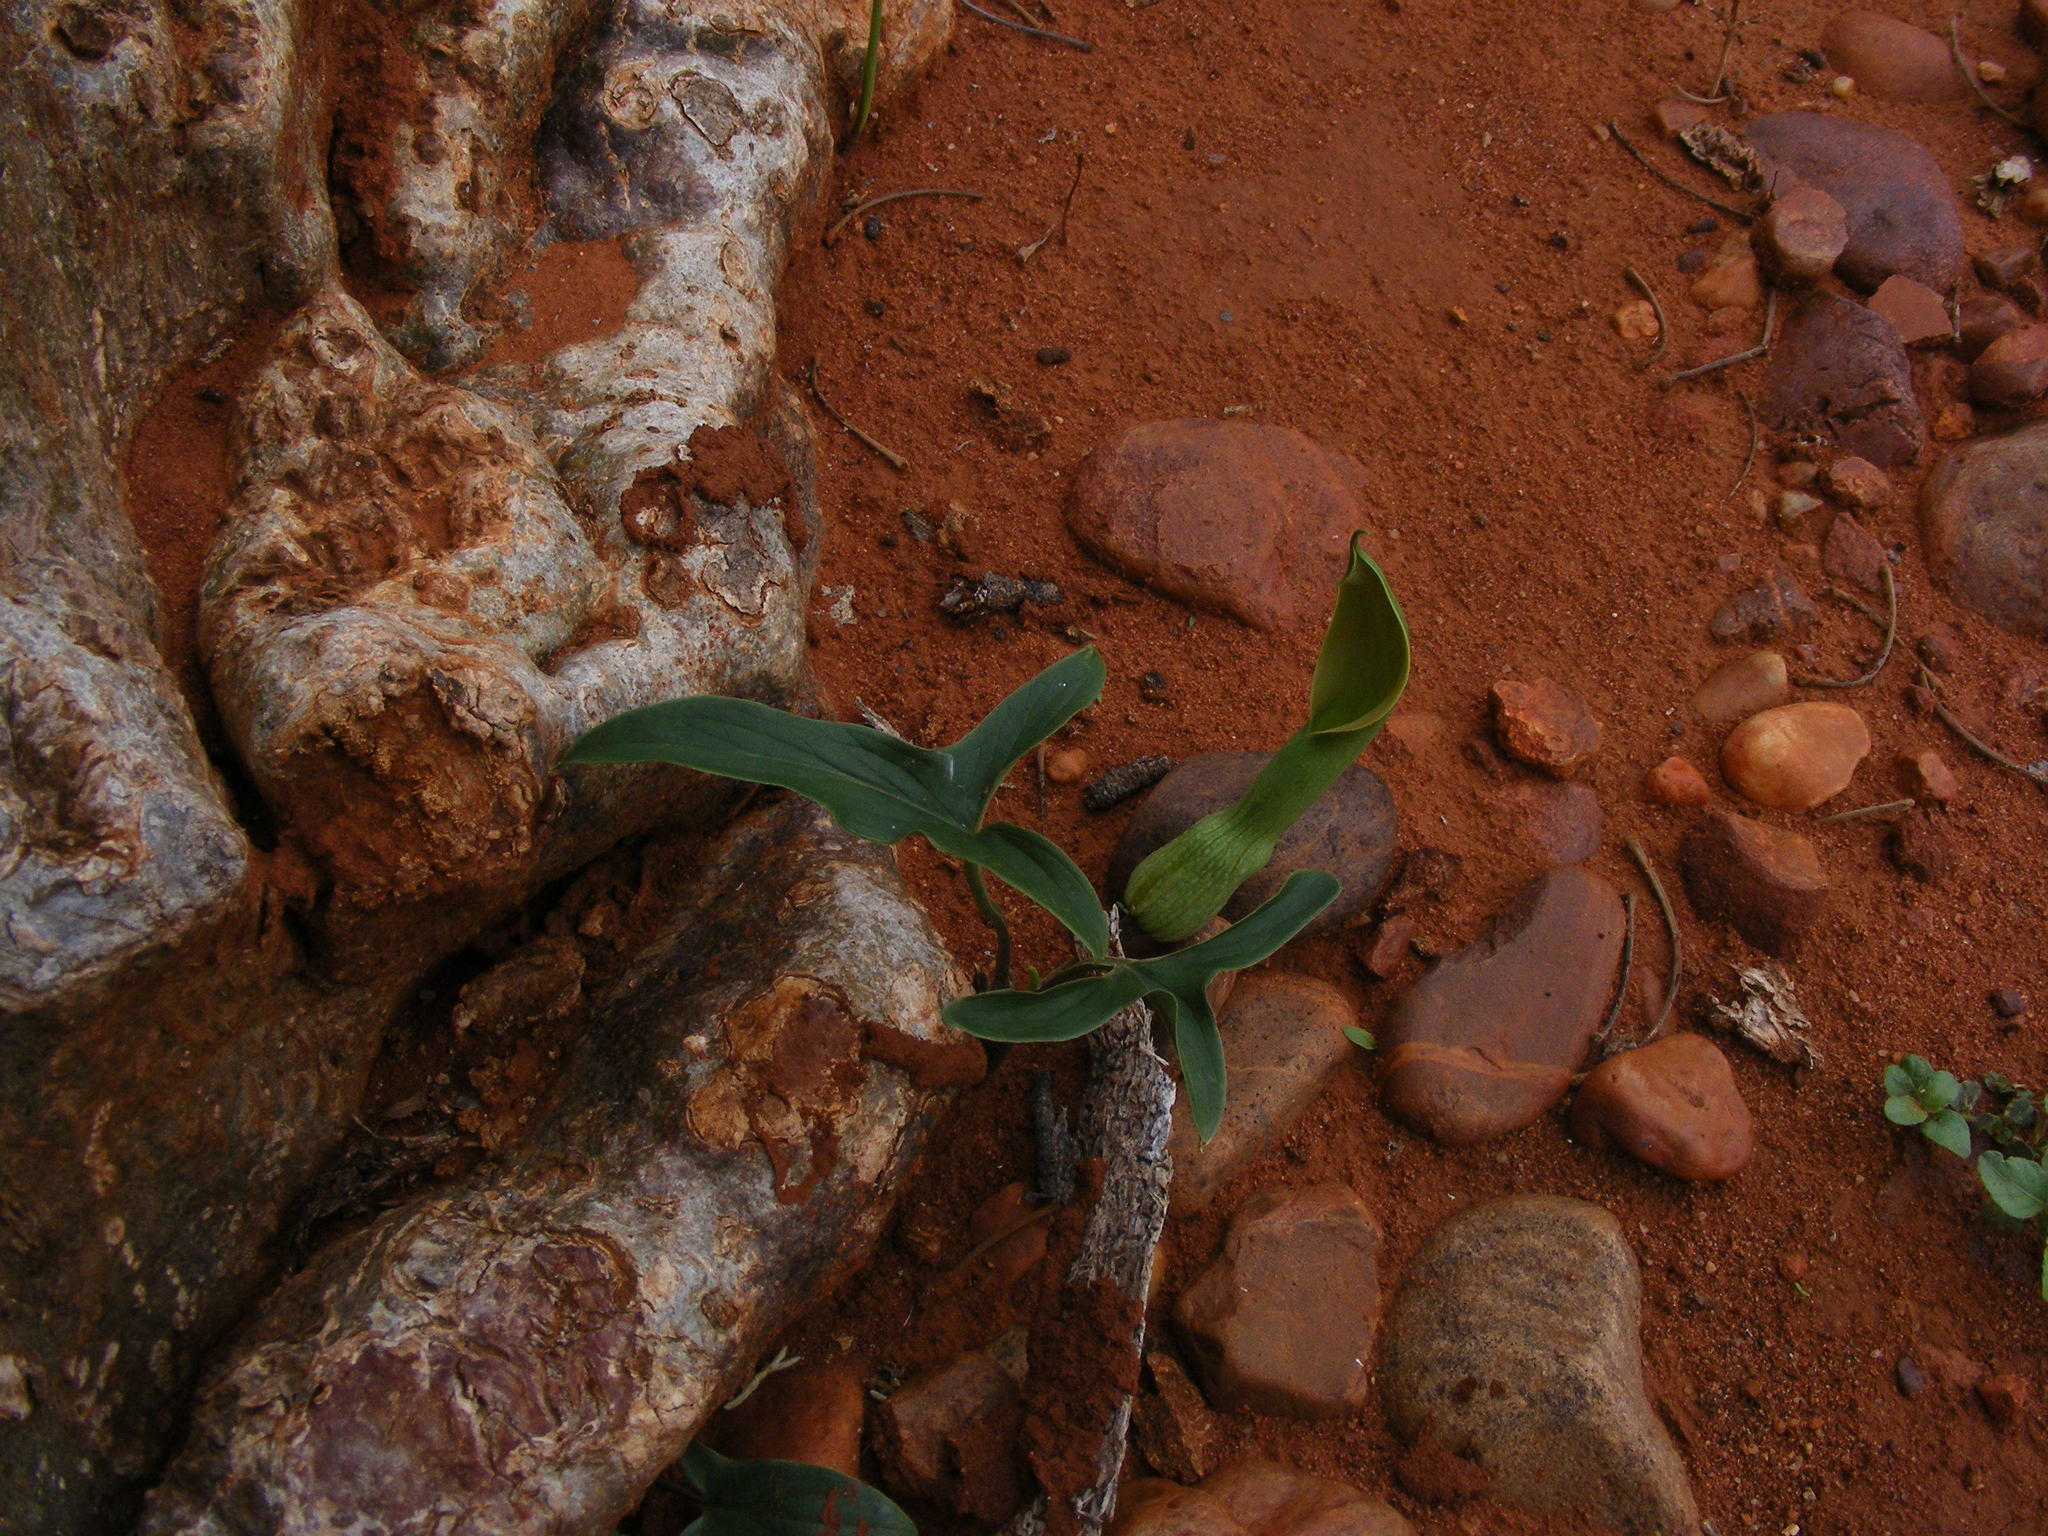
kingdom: Plantae
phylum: Tracheophyta
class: Liliopsida
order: Alismatales
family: Araceae
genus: Stylochaeton
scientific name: Stylochaeton natalensis
